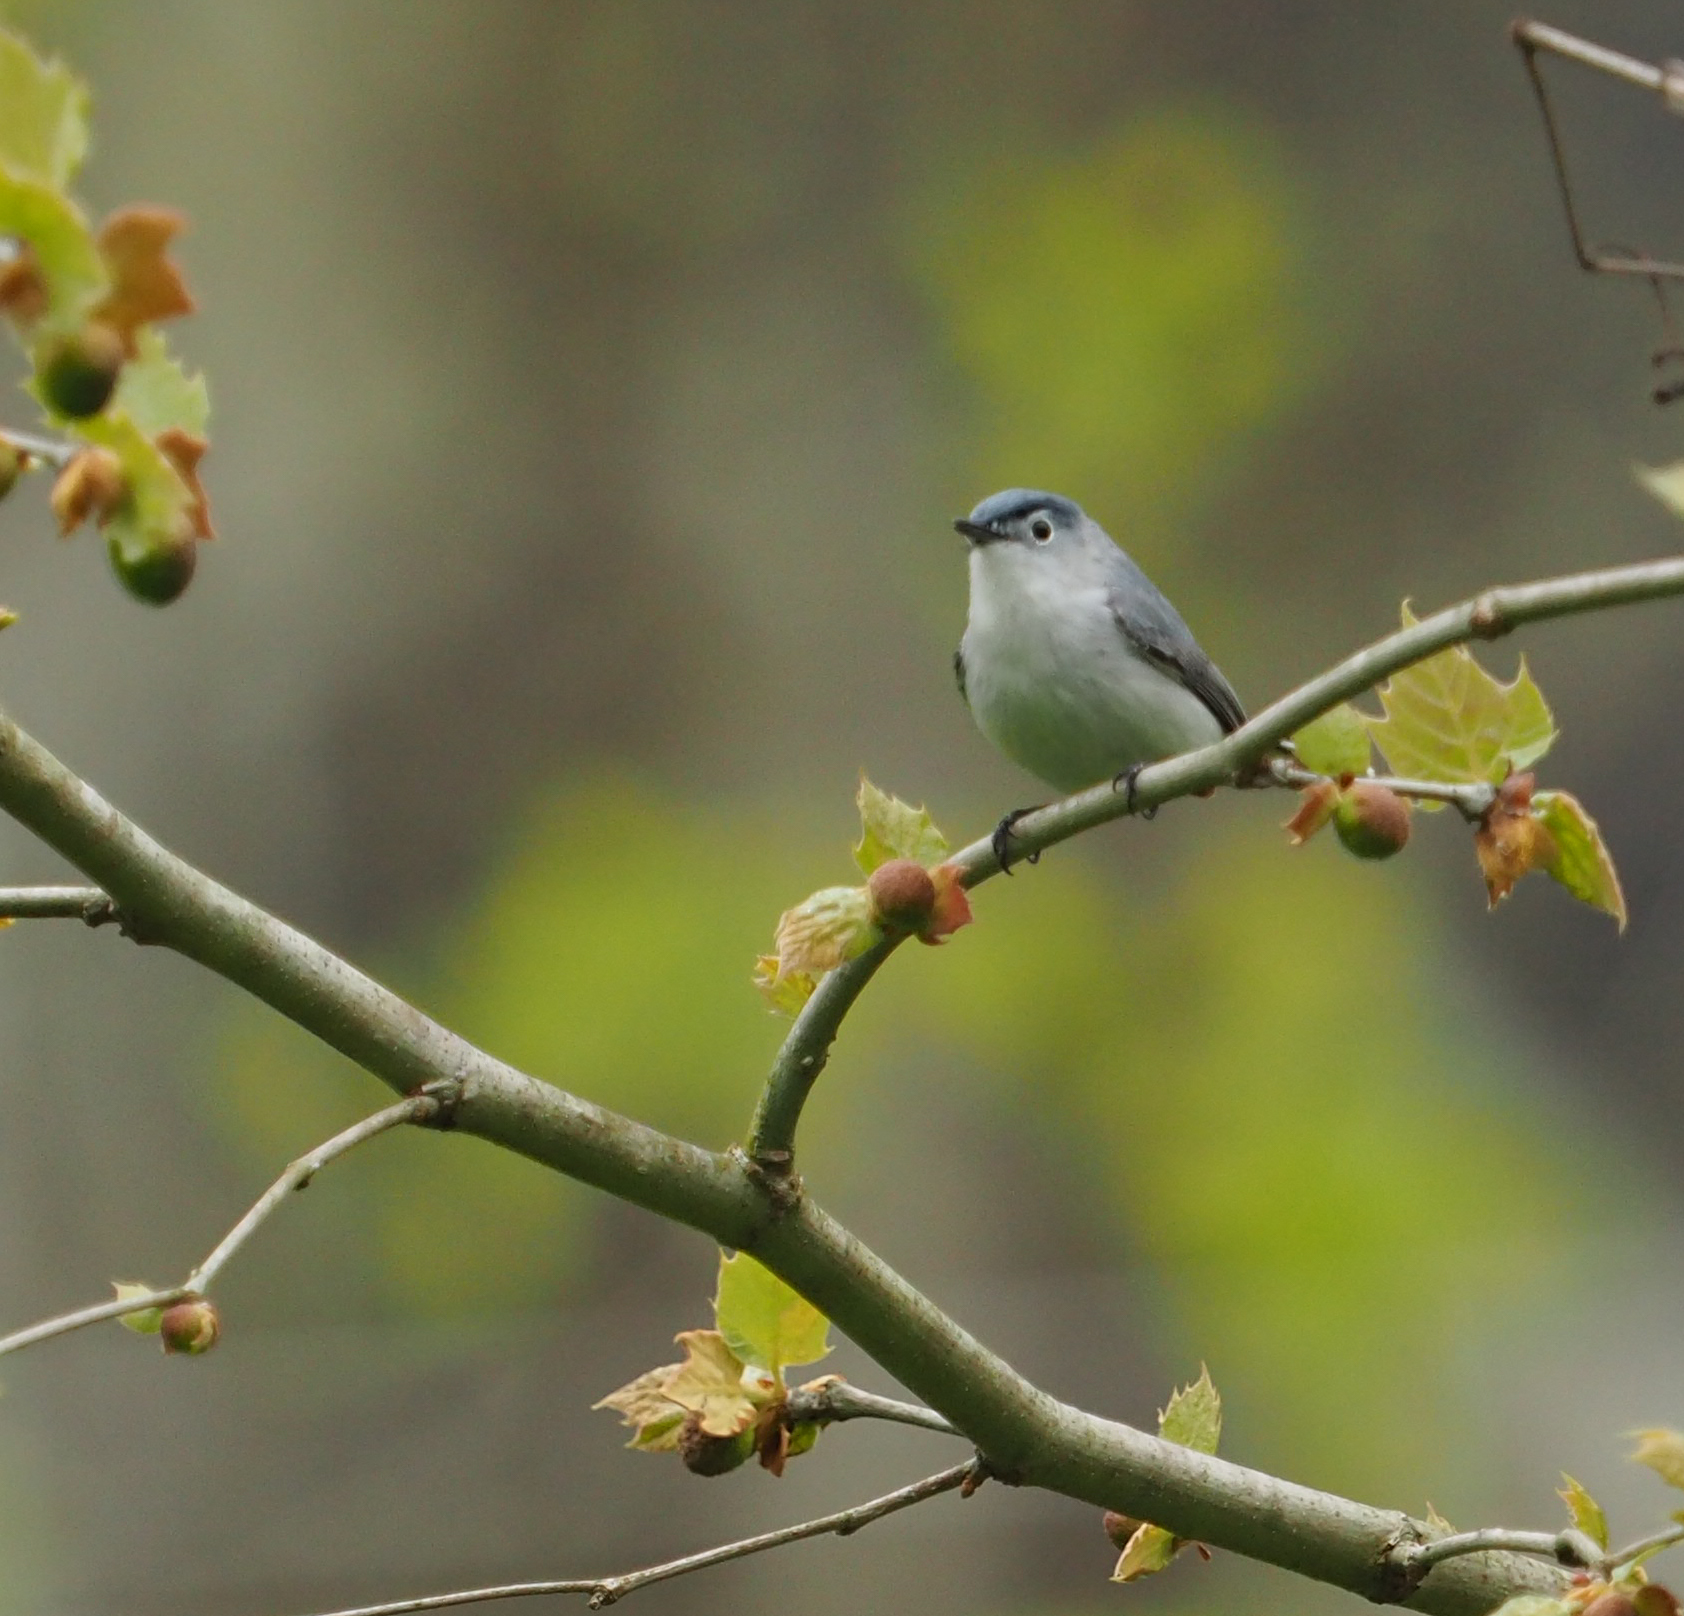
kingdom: Animalia
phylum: Chordata
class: Aves
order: Passeriformes
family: Polioptilidae
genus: Polioptila
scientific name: Polioptila caerulea
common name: Blue-gray gnatcatcher
